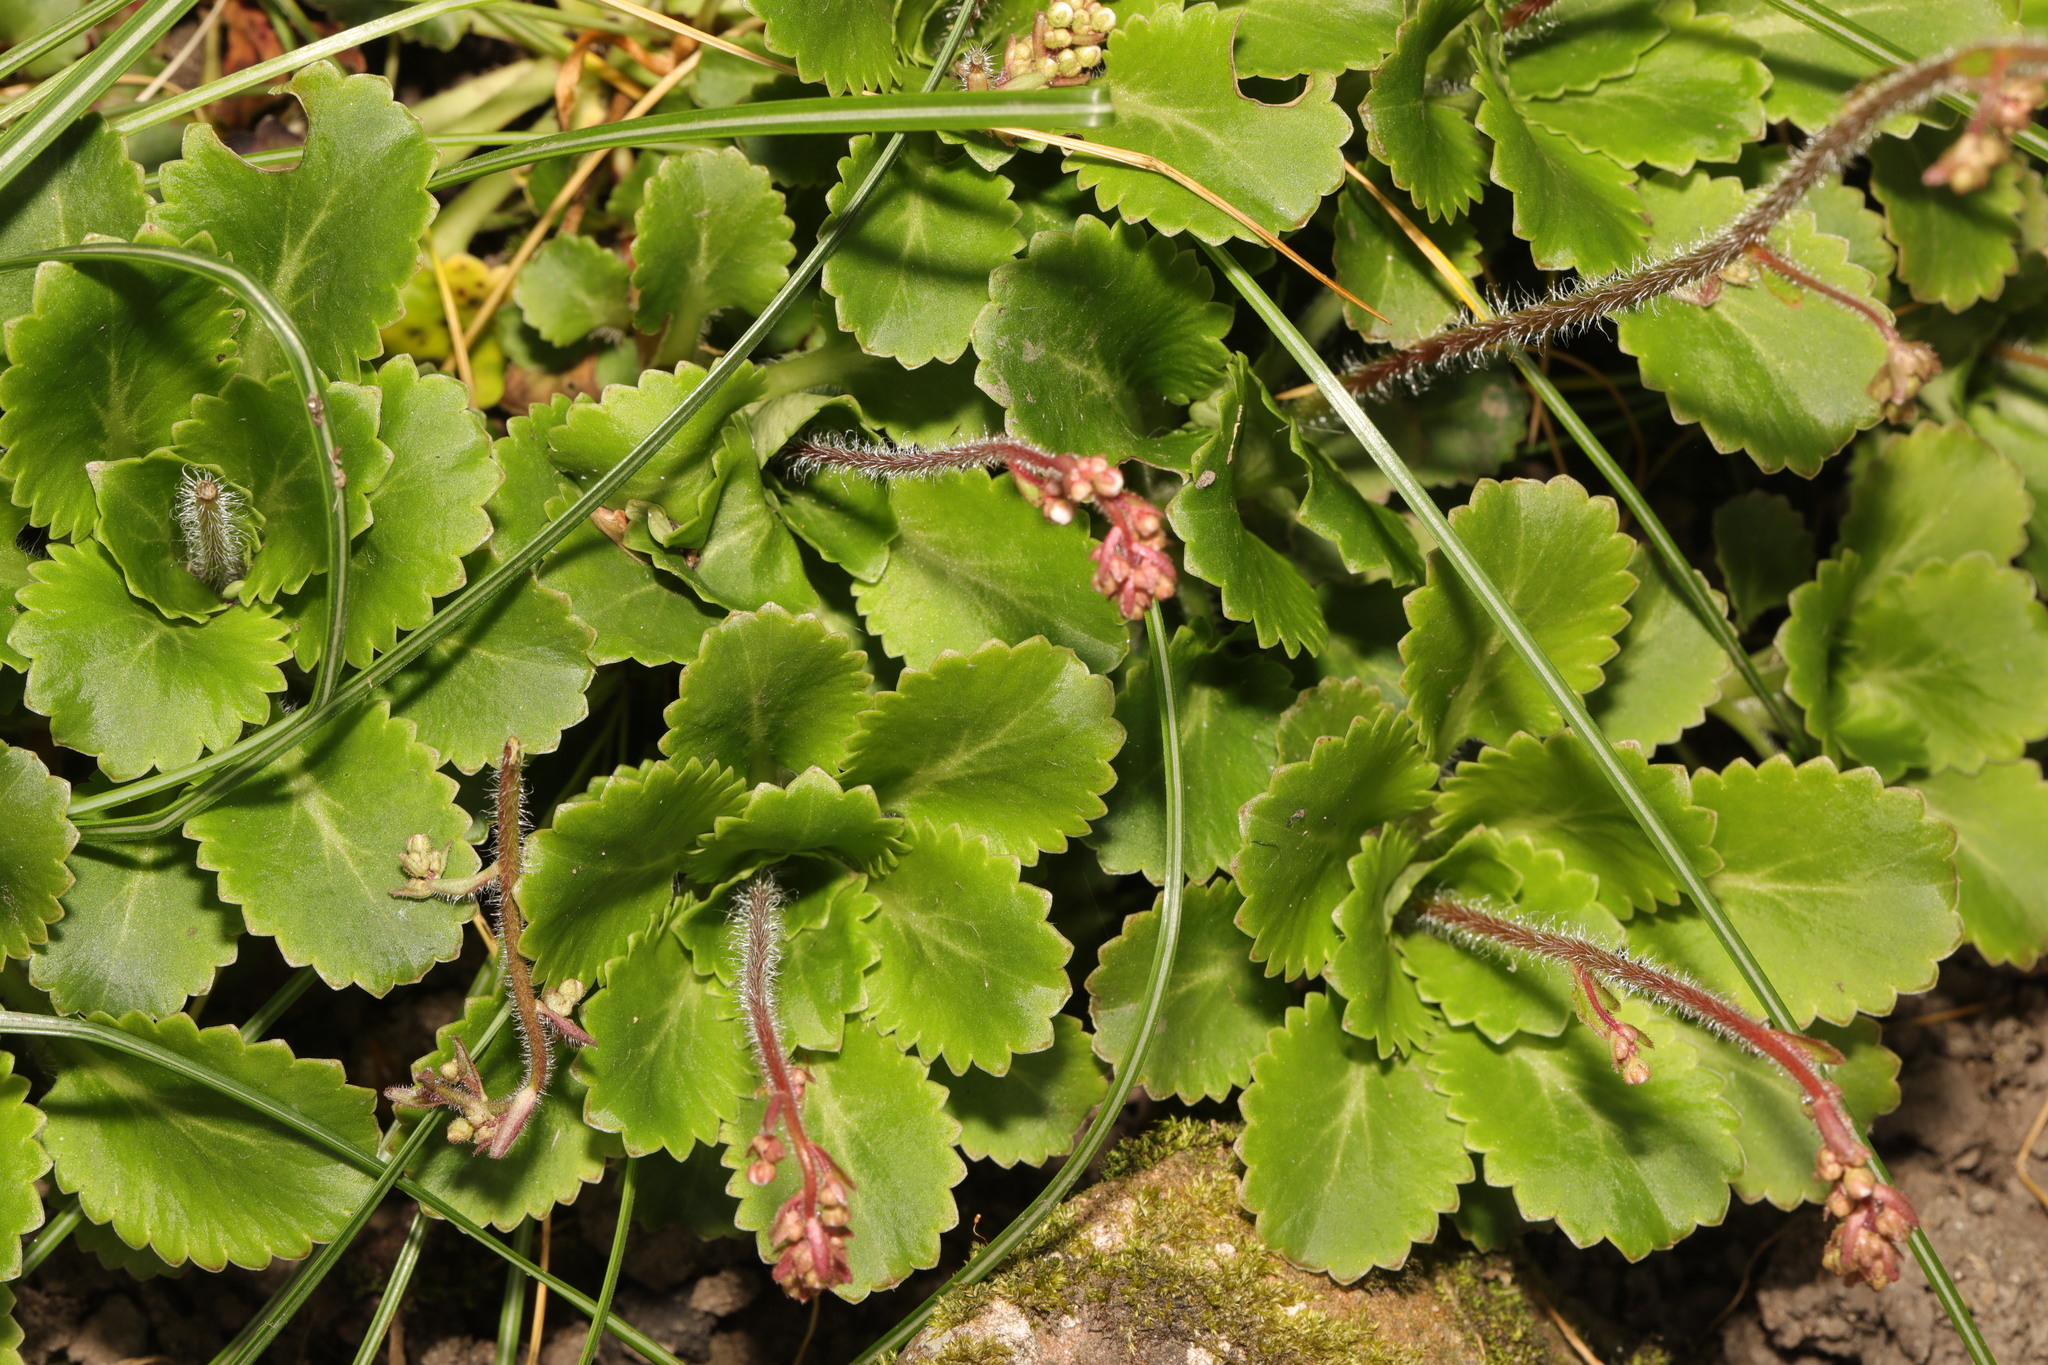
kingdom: Plantae
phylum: Tracheophyta
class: Magnoliopsida
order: Saxifragales
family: Saxifragaceae
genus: Saxifraga
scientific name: Saxifraga urbium
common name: Londonpride
